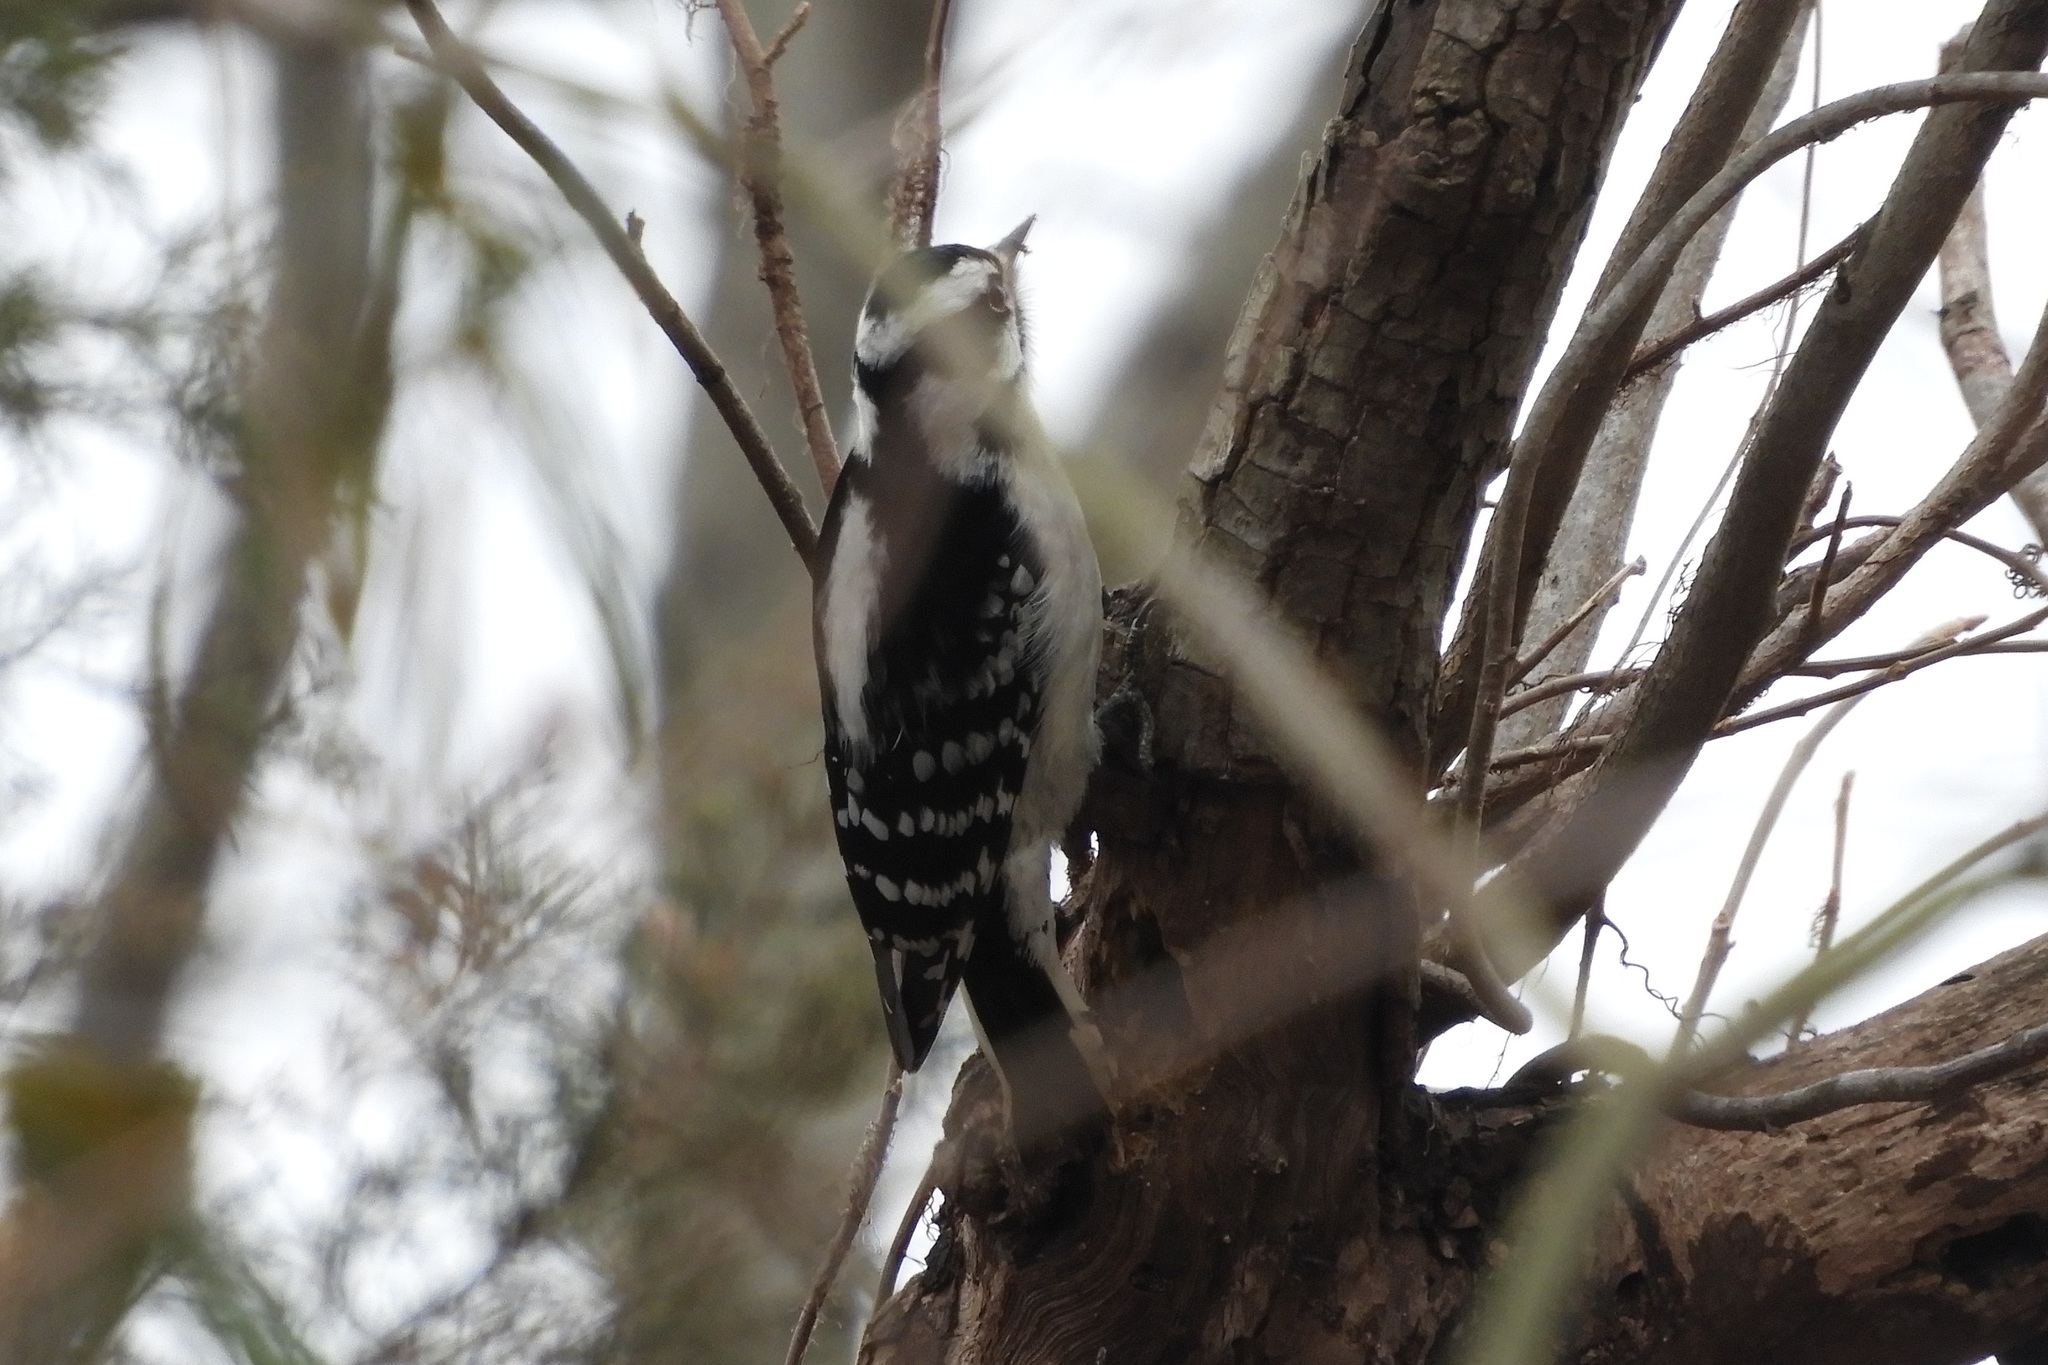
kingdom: Animalia
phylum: Chordata
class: Aves
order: Piciformes
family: Picidae
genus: Dryobates
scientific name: Dryobates pubescens
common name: Downy woodpecker
